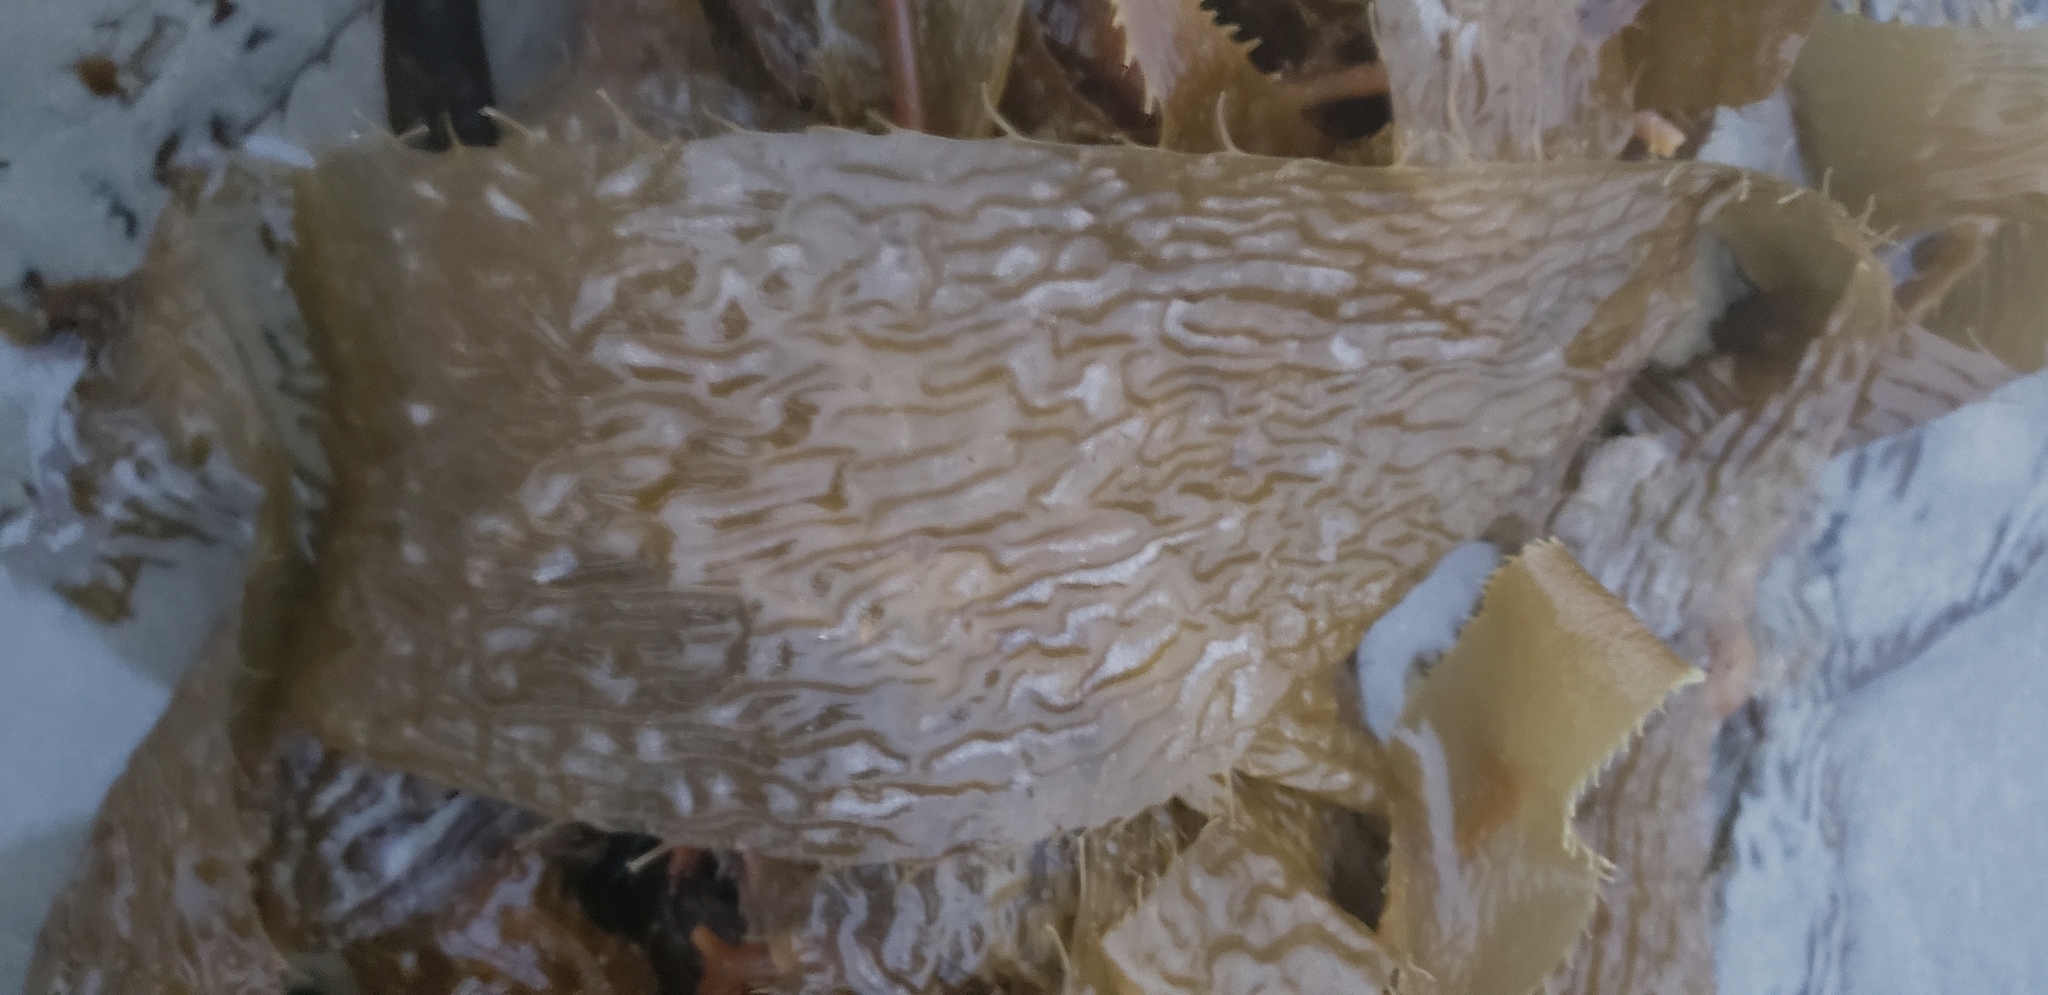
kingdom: Chromista
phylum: Ochrophyta
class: Phaeophyceae
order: Laminariales
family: Laminariaceae
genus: Macrocystis
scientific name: Macrocystis pyrifera
